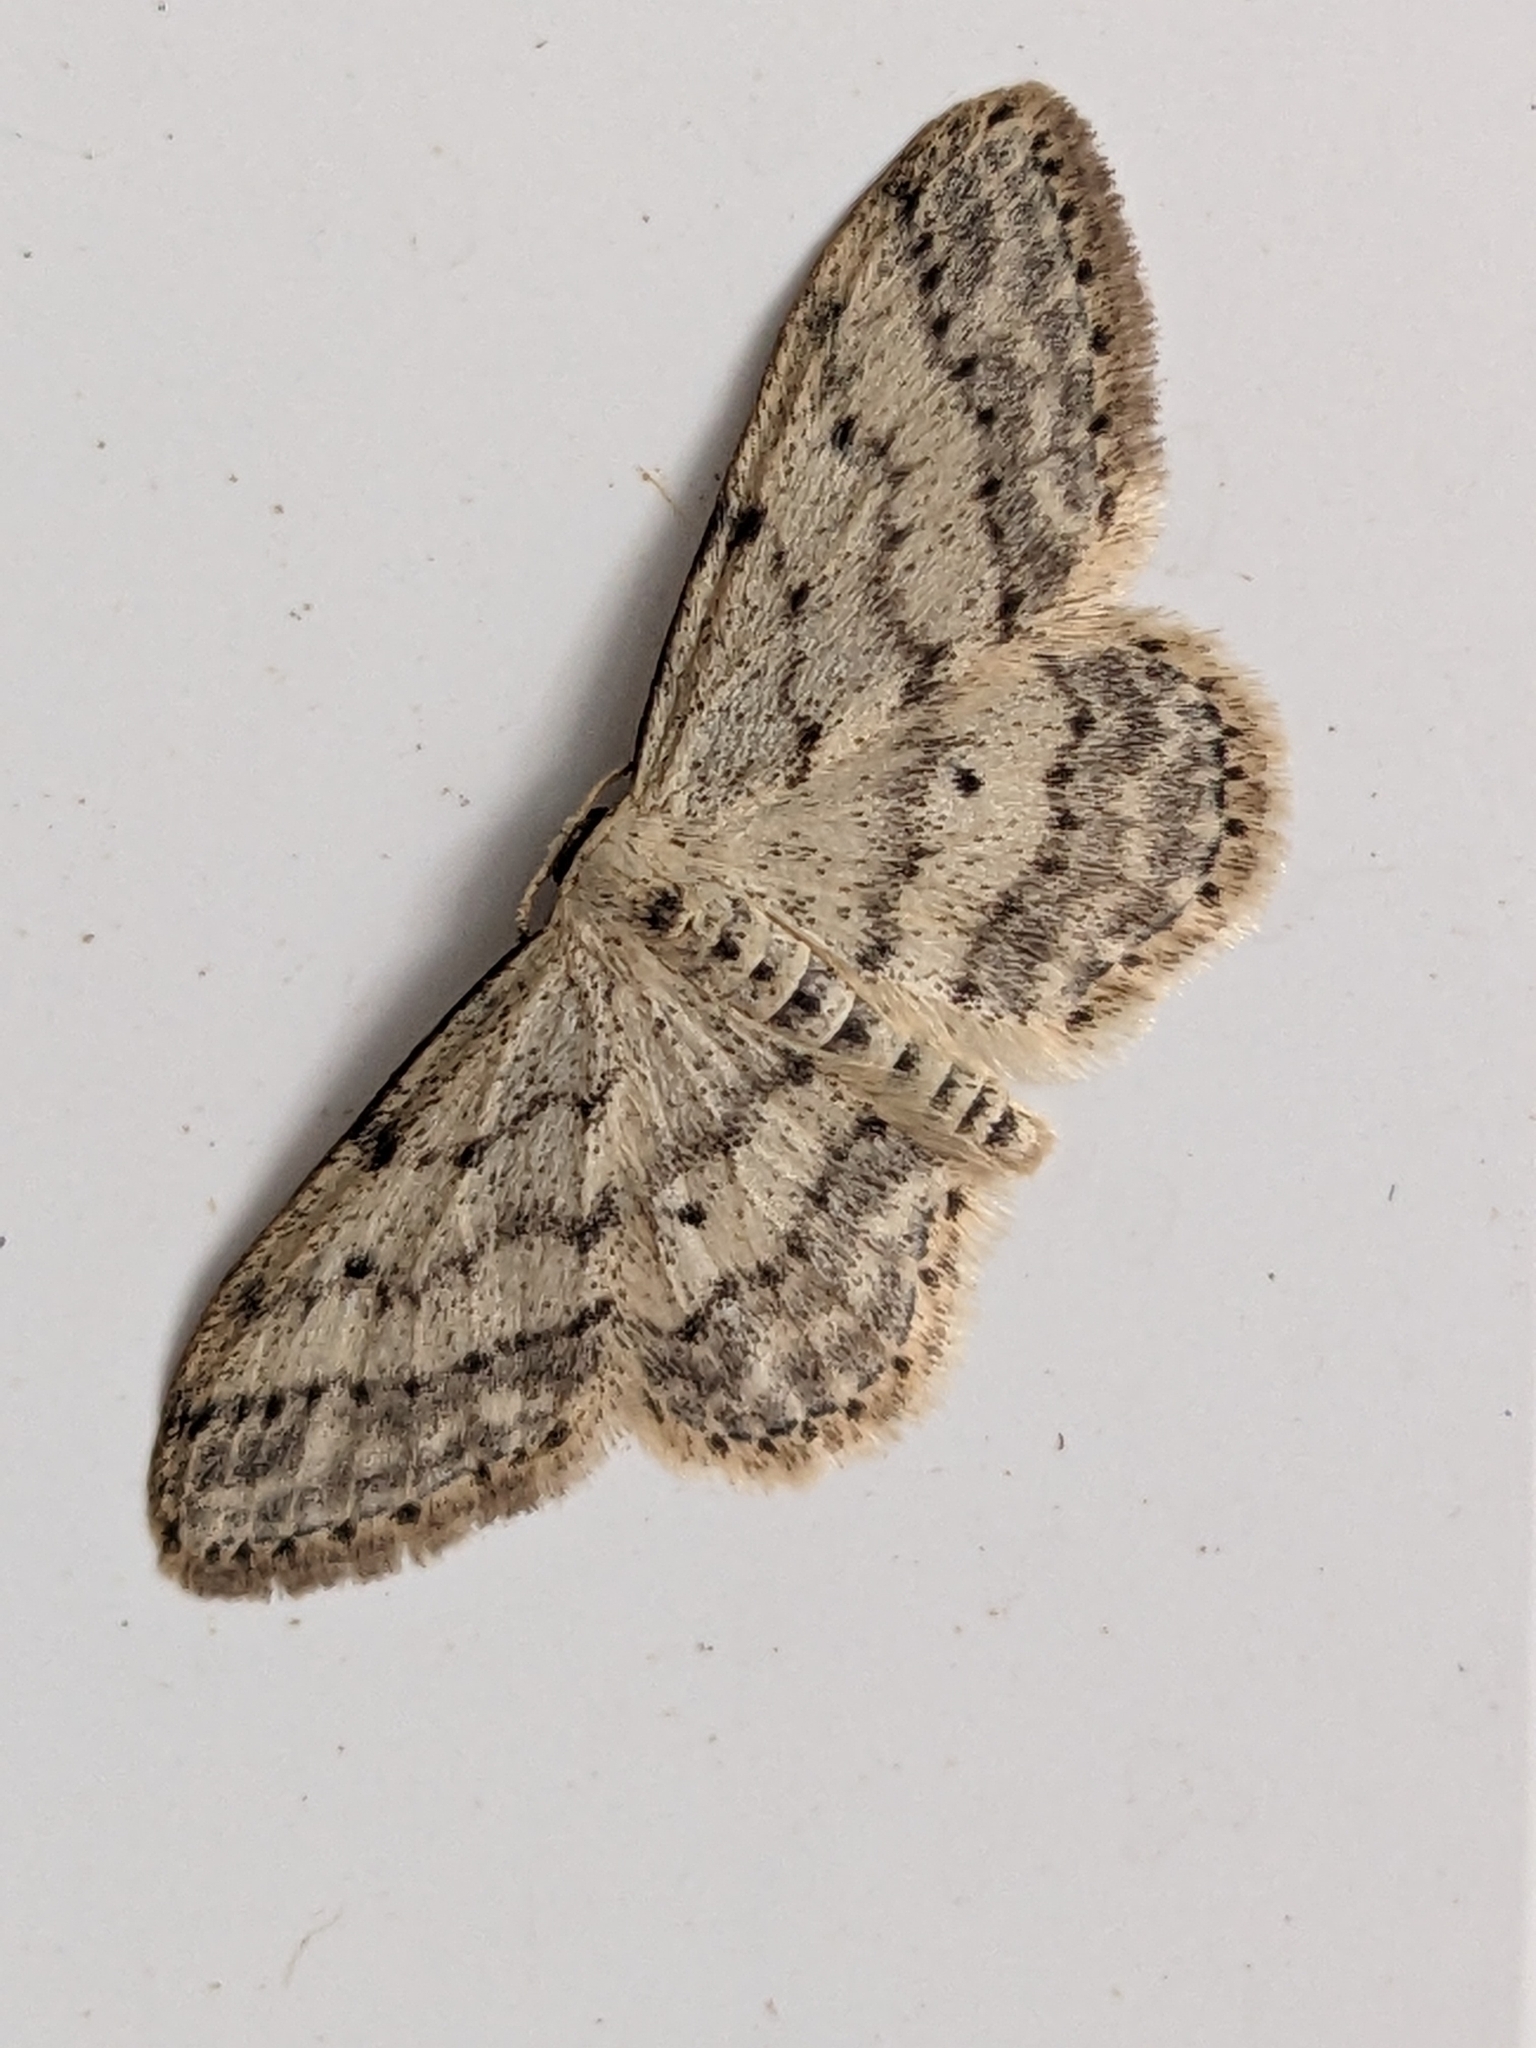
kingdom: Animalia
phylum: Arthropoda
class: Insecta
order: Lepidoptera
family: Geometridae
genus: Idaea
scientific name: Idaea seriata
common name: Small dusty wave
